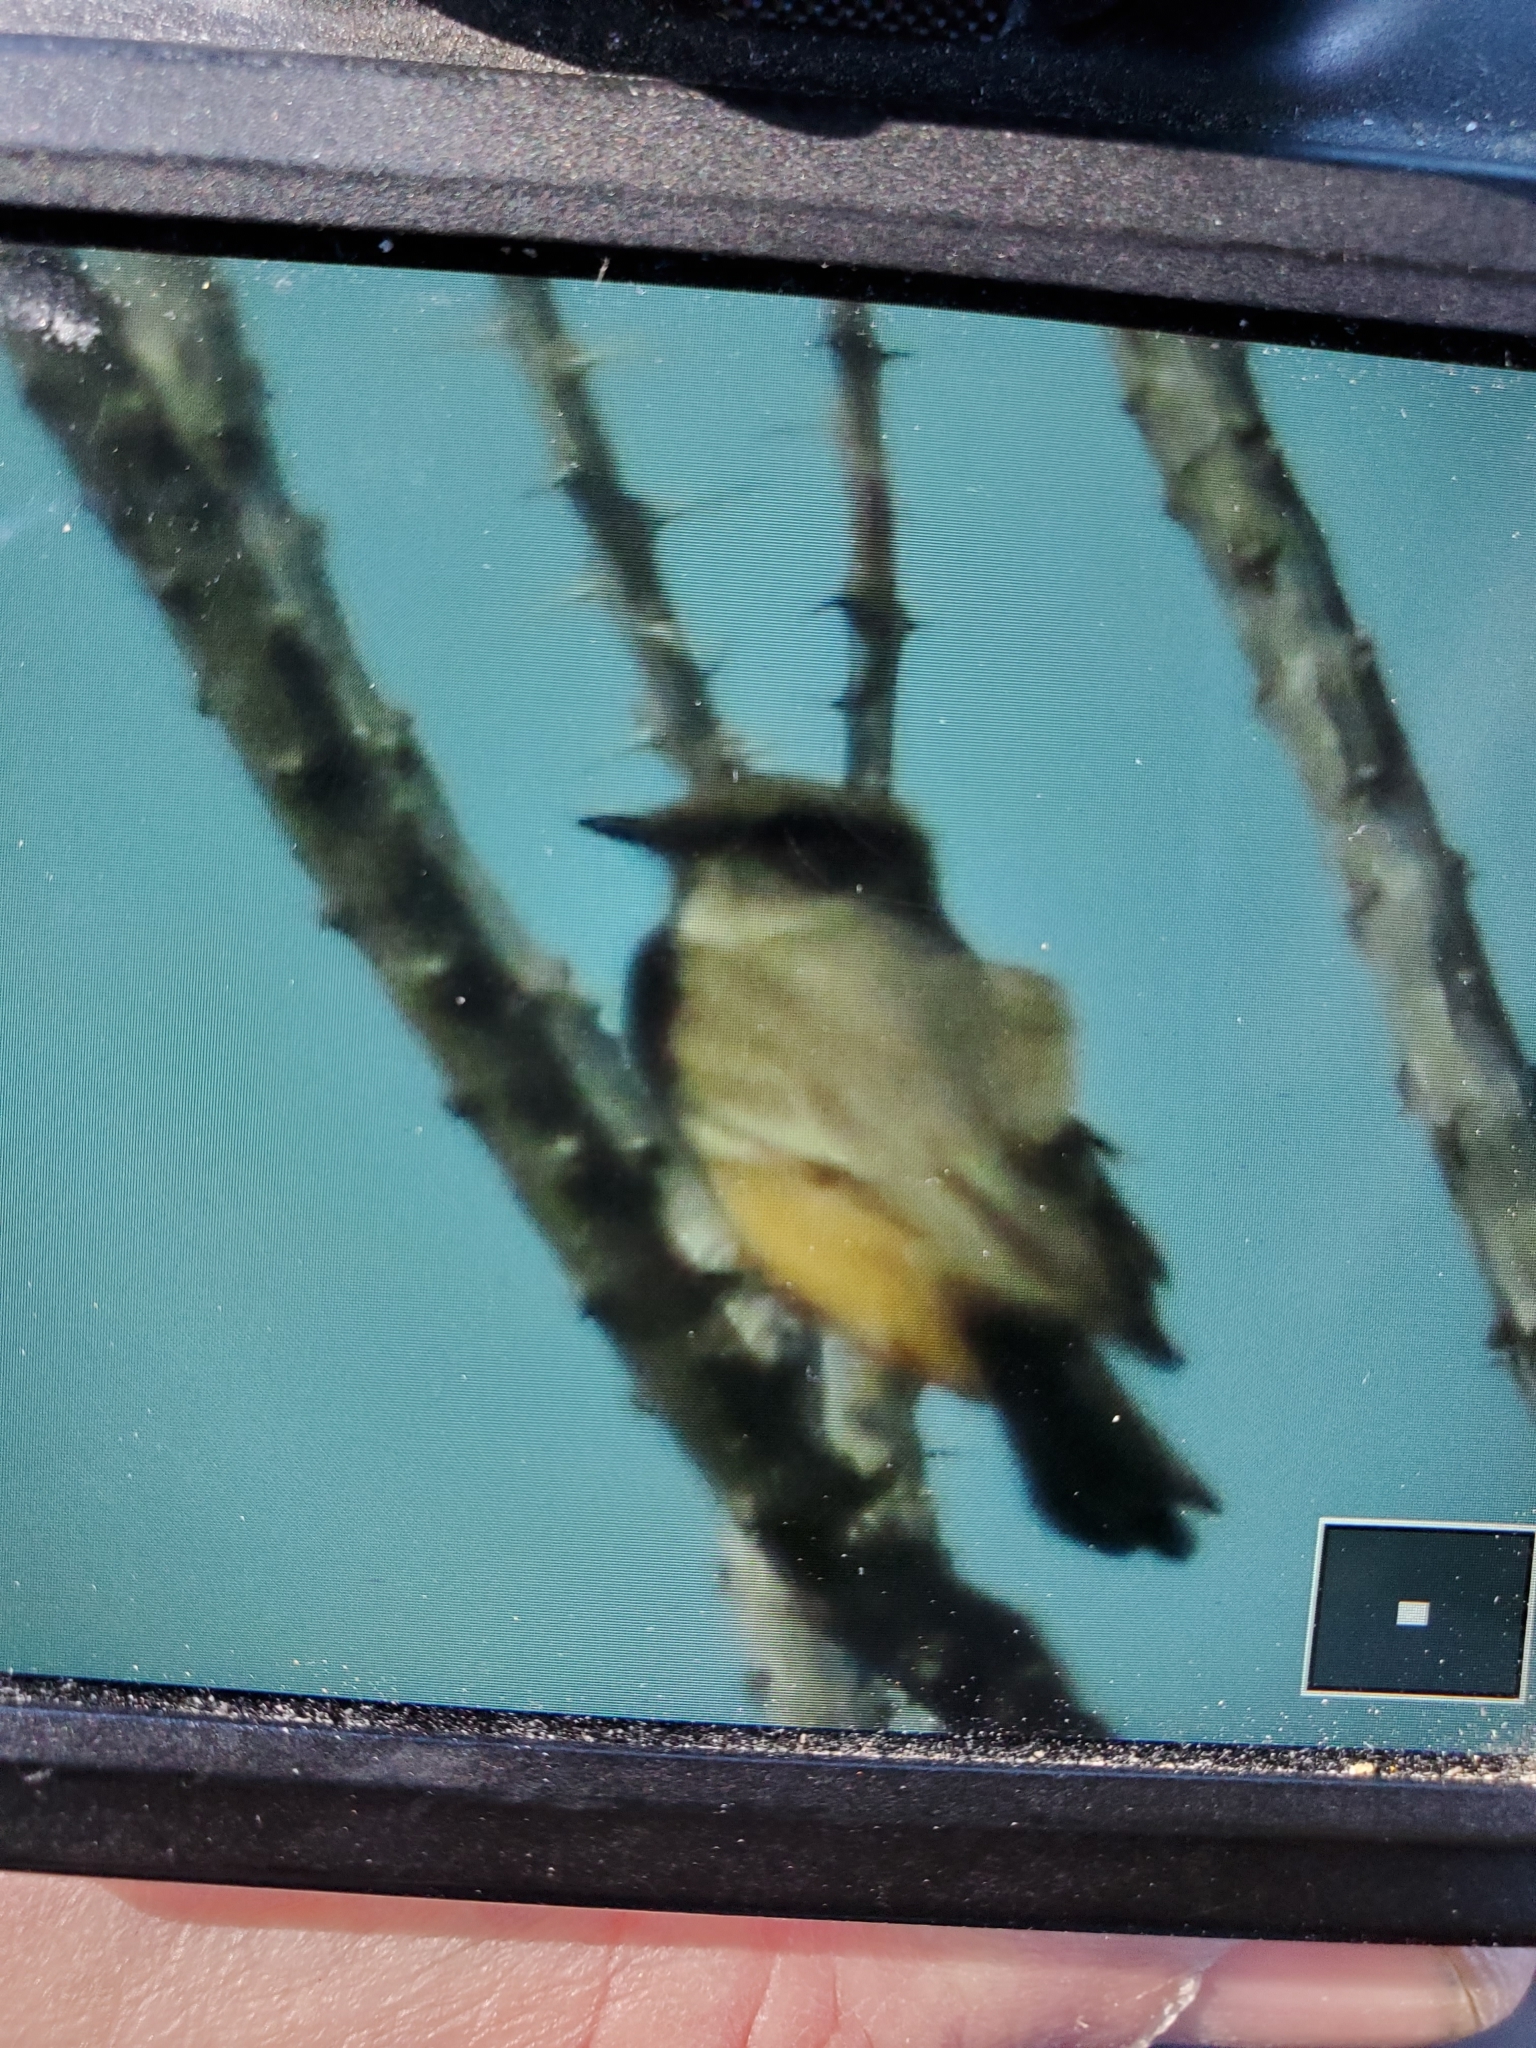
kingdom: Animalia
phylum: Chordata
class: Aves
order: Passeriformes
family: Tyrannidae
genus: Sayornis
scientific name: Sayornis saya
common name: Say's phoebe
